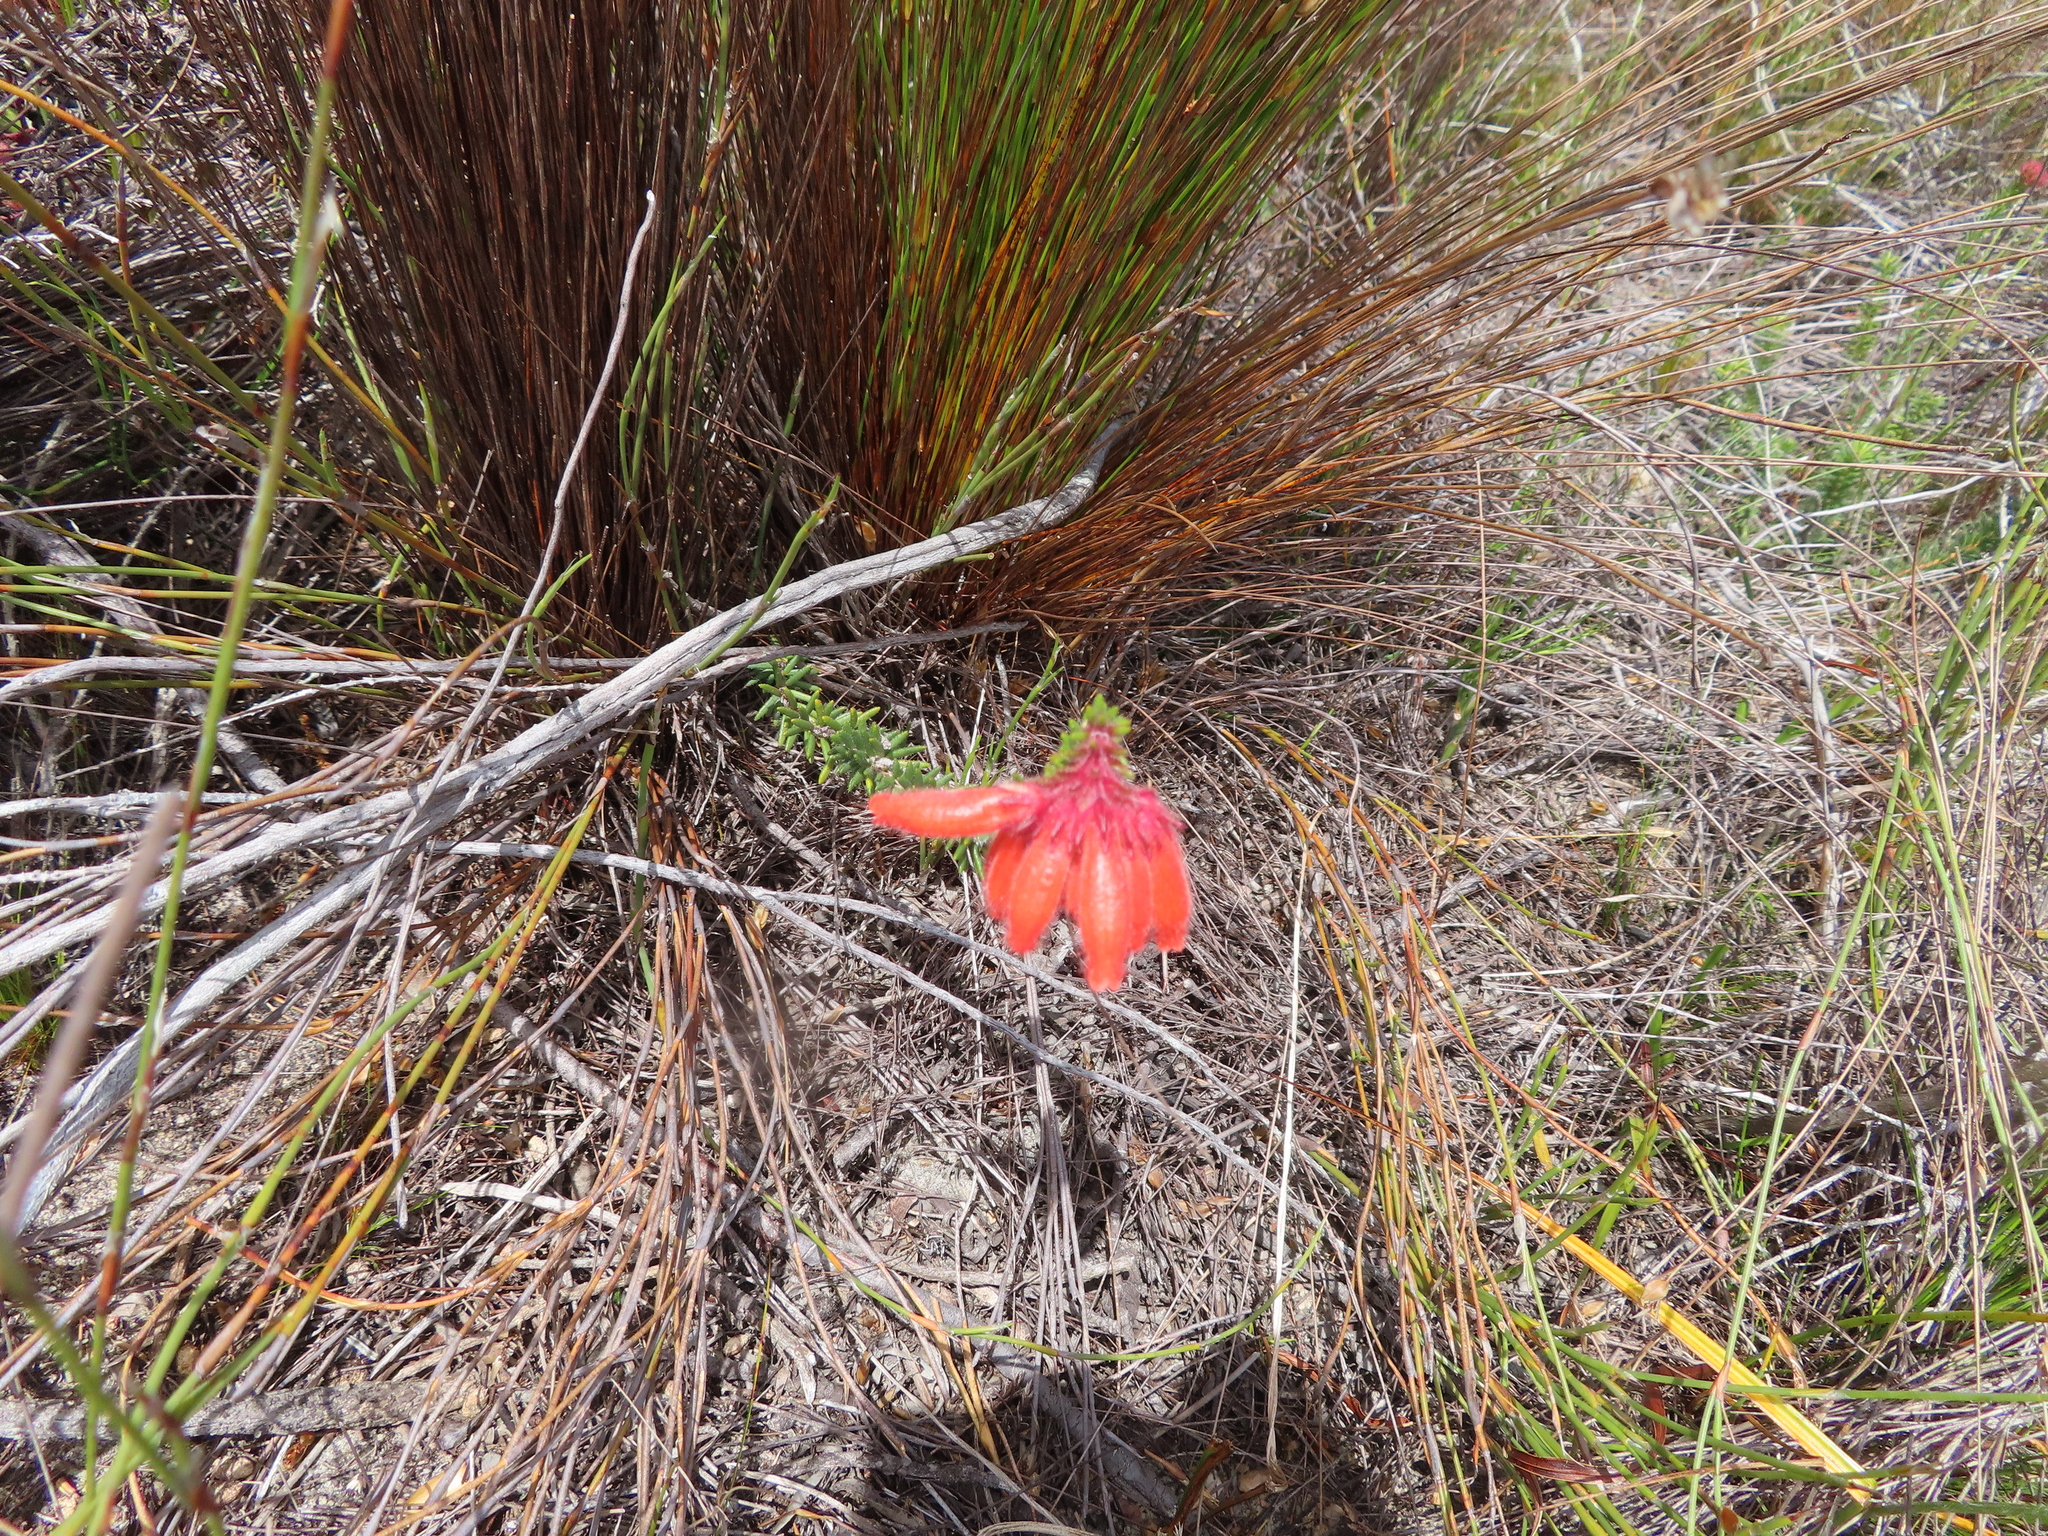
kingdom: Plantae
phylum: Tracheophyta
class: Magnoliopsida
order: Ericales
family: Ericaceae
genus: Erica
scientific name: Erica cerinthoides
